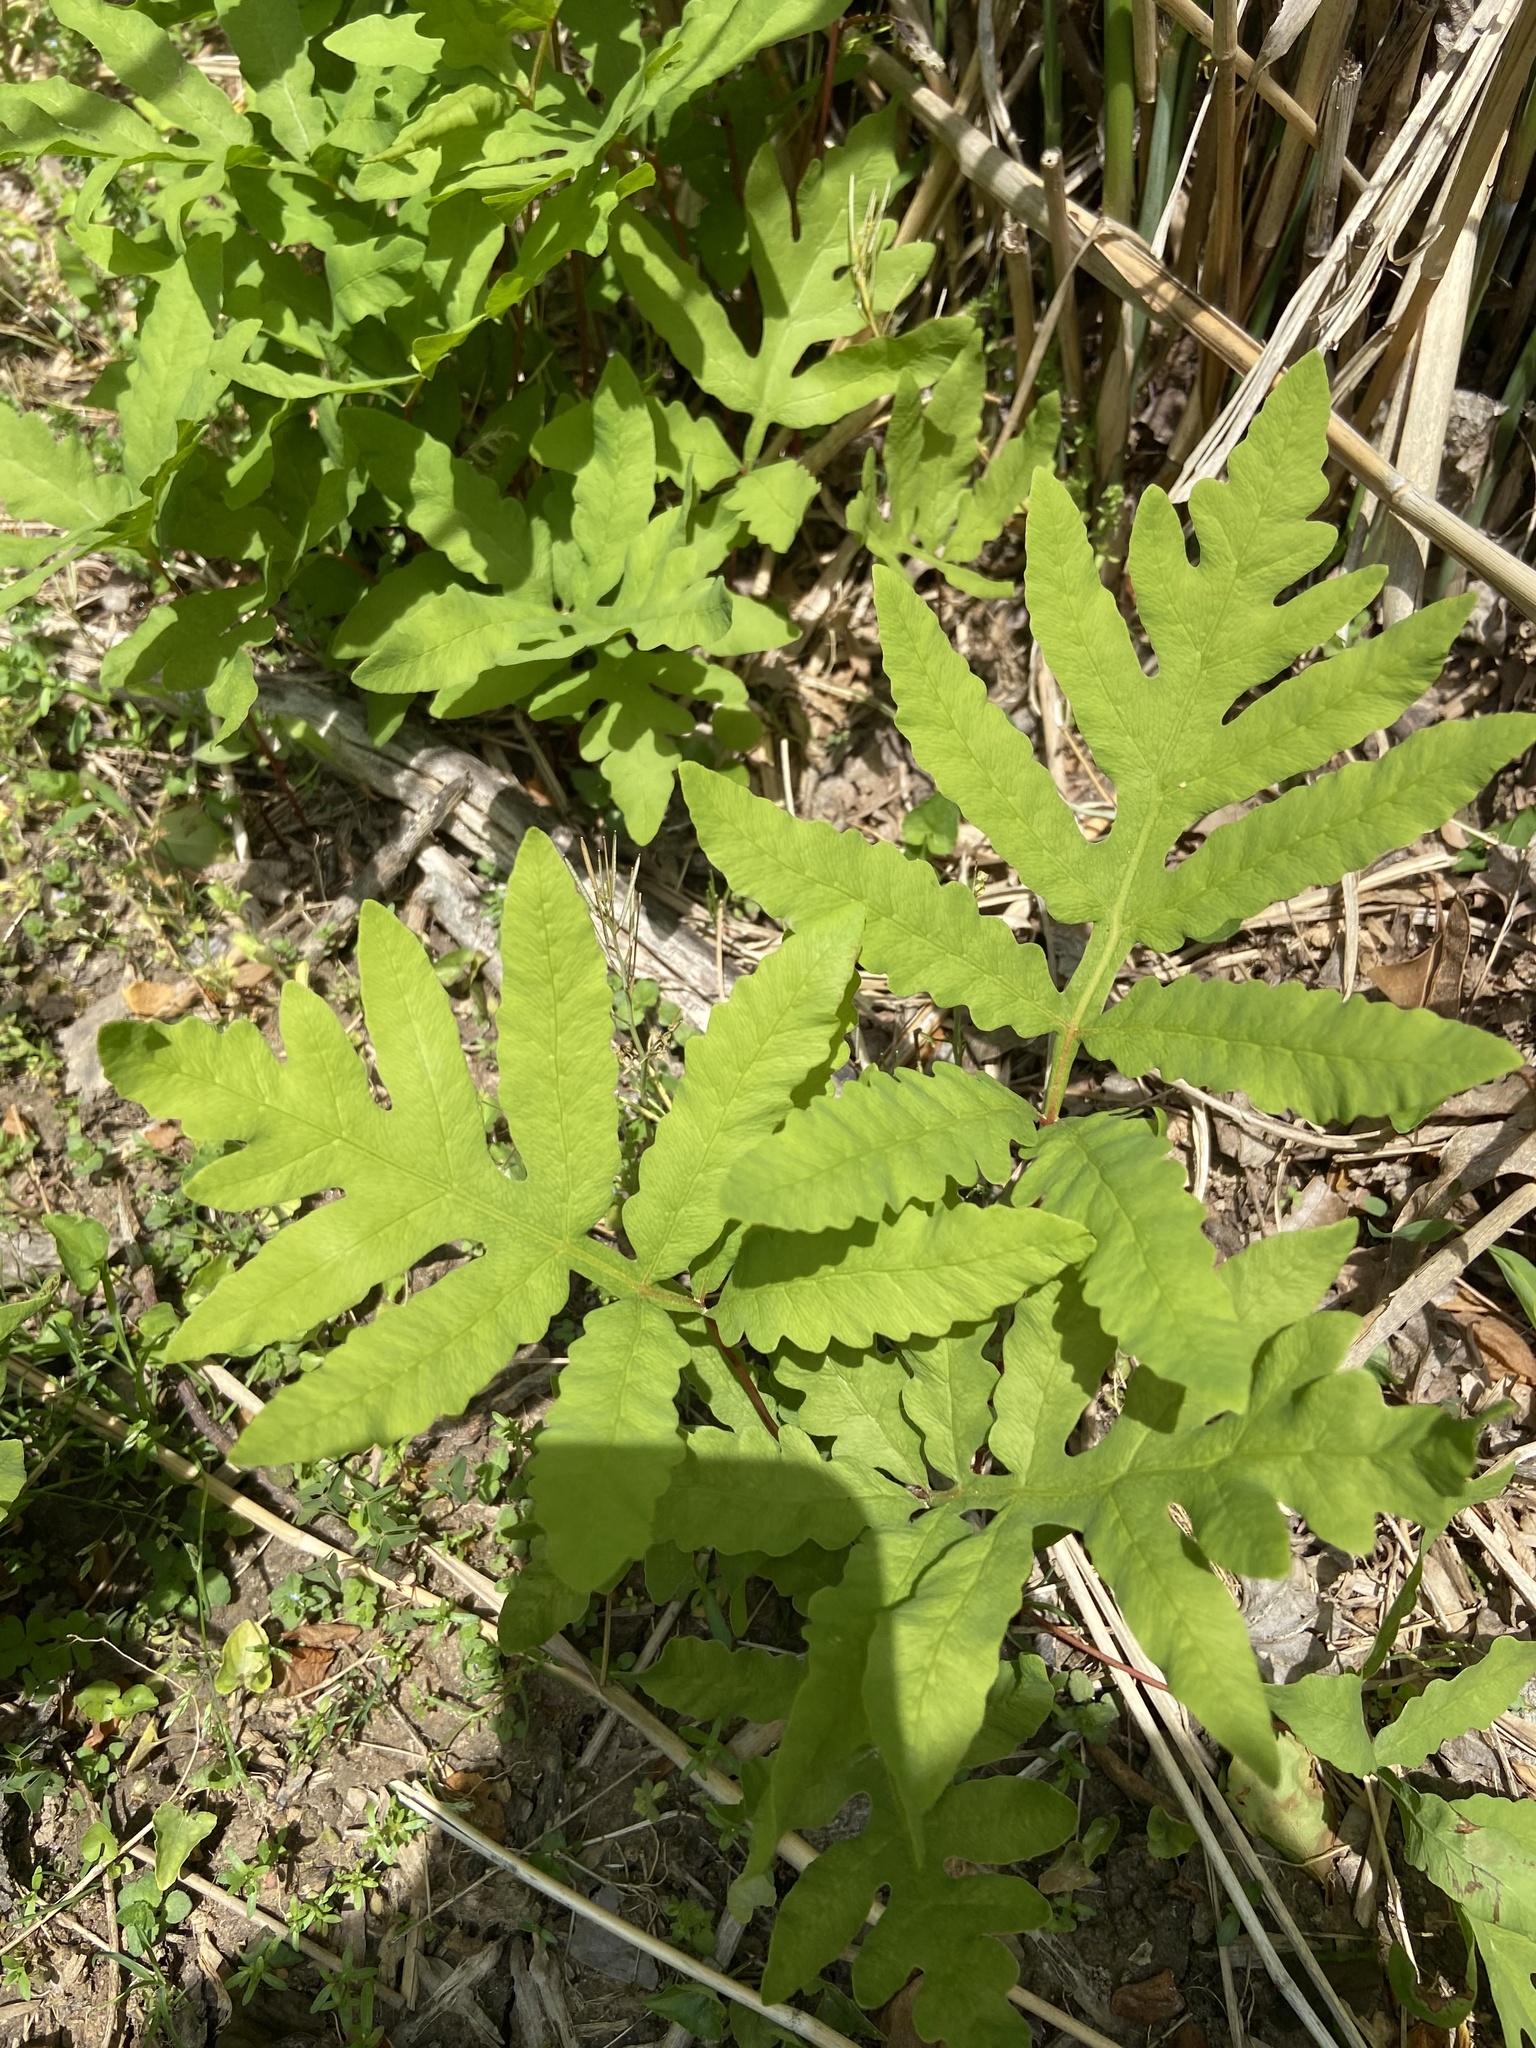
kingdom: Plantae
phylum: Tracheophyta
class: Polypodiopsida
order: Polypodiales
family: Onocleaceae
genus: Onoclea
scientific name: Onoclea sensibilis
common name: Sensitive fern
